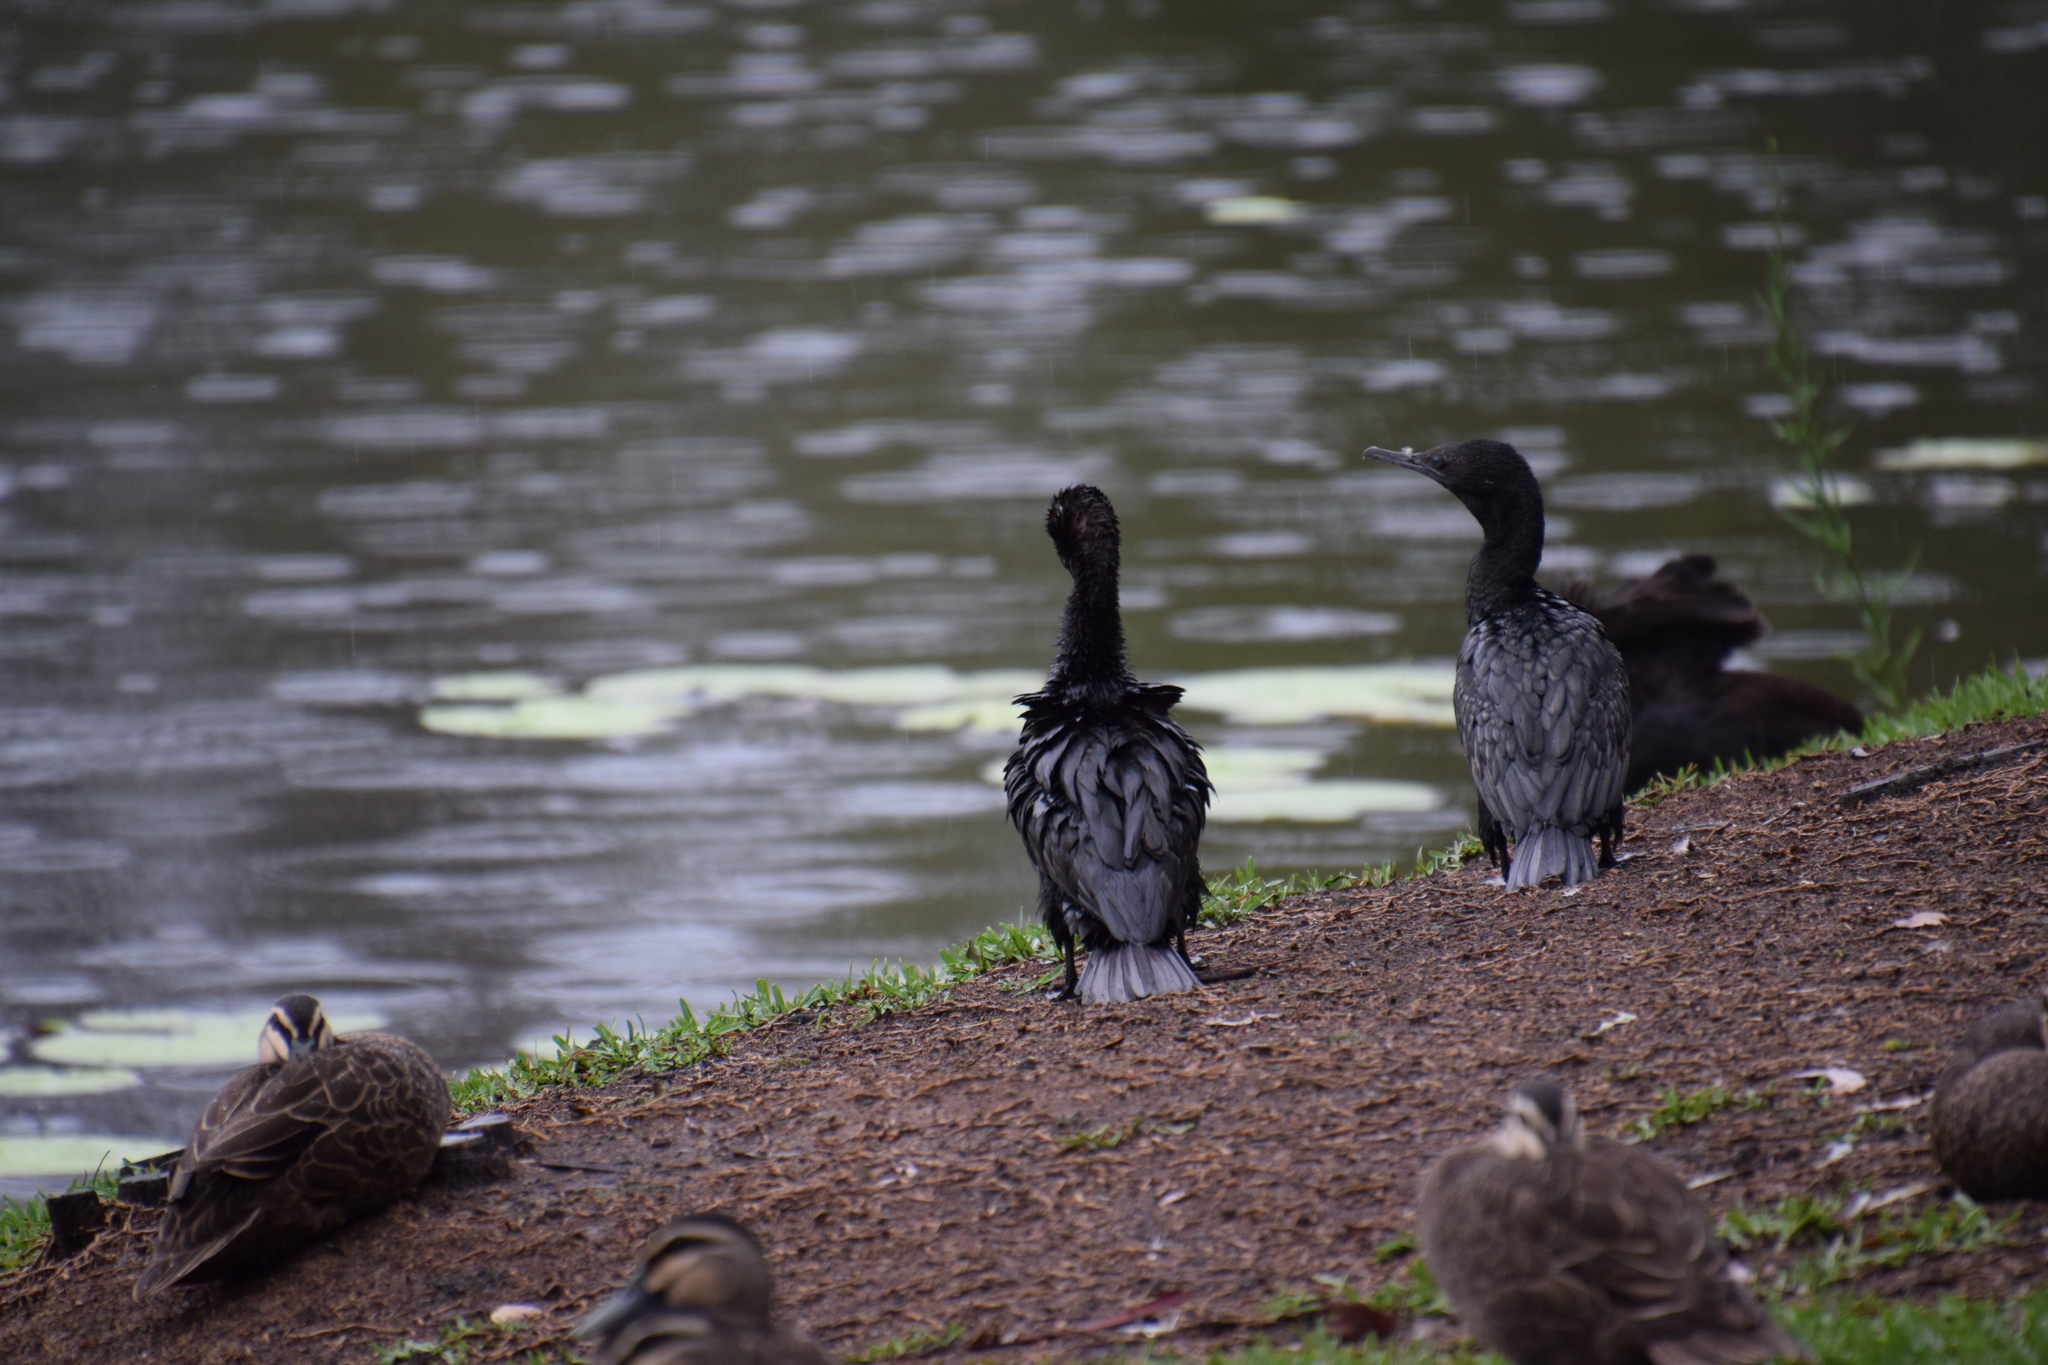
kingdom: Animalia
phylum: Chordata
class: Aves
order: Suliformes
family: Phalacrocoracidae
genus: Phalacrocorax
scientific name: Phalacrocorax sulcirostris
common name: Little black cormorant
